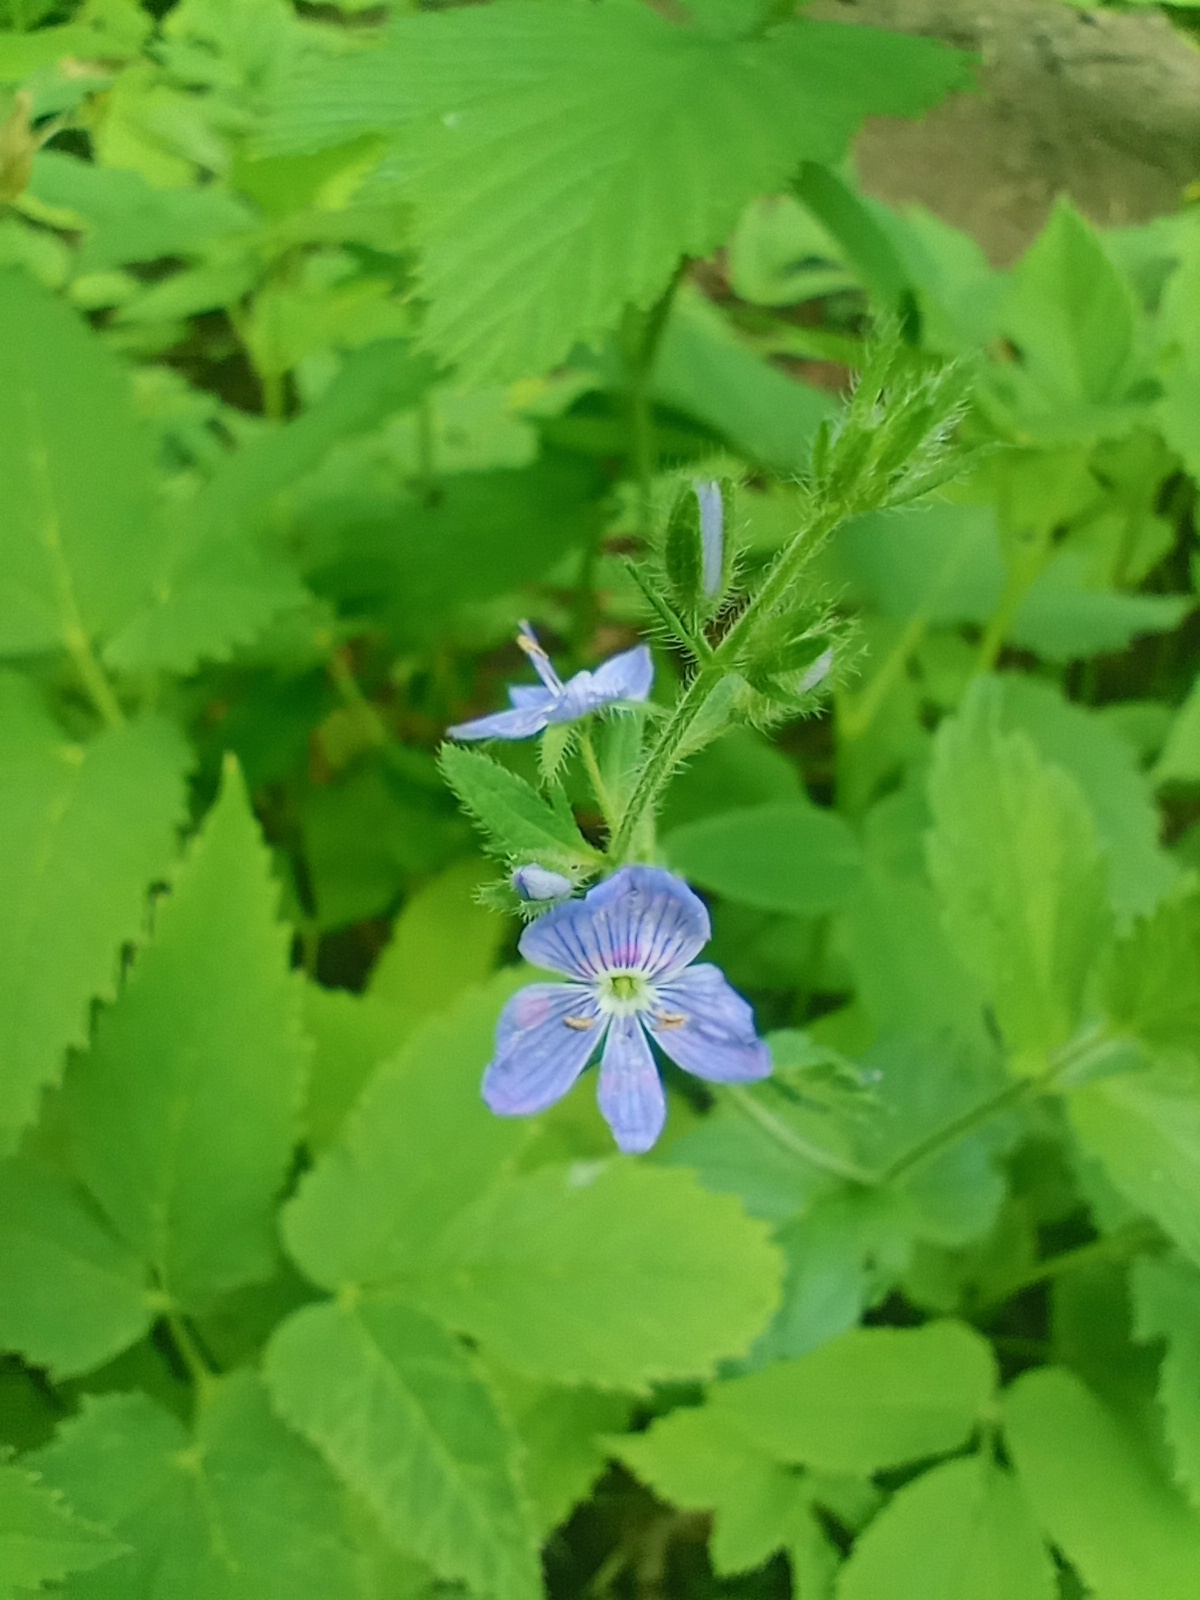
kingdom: Plantae
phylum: Tracheophyta
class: Magnoliopsida
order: Lamiales
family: Plantaginaceae
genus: Veronica
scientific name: Veronica chamaedrys
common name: Germander speedwell
